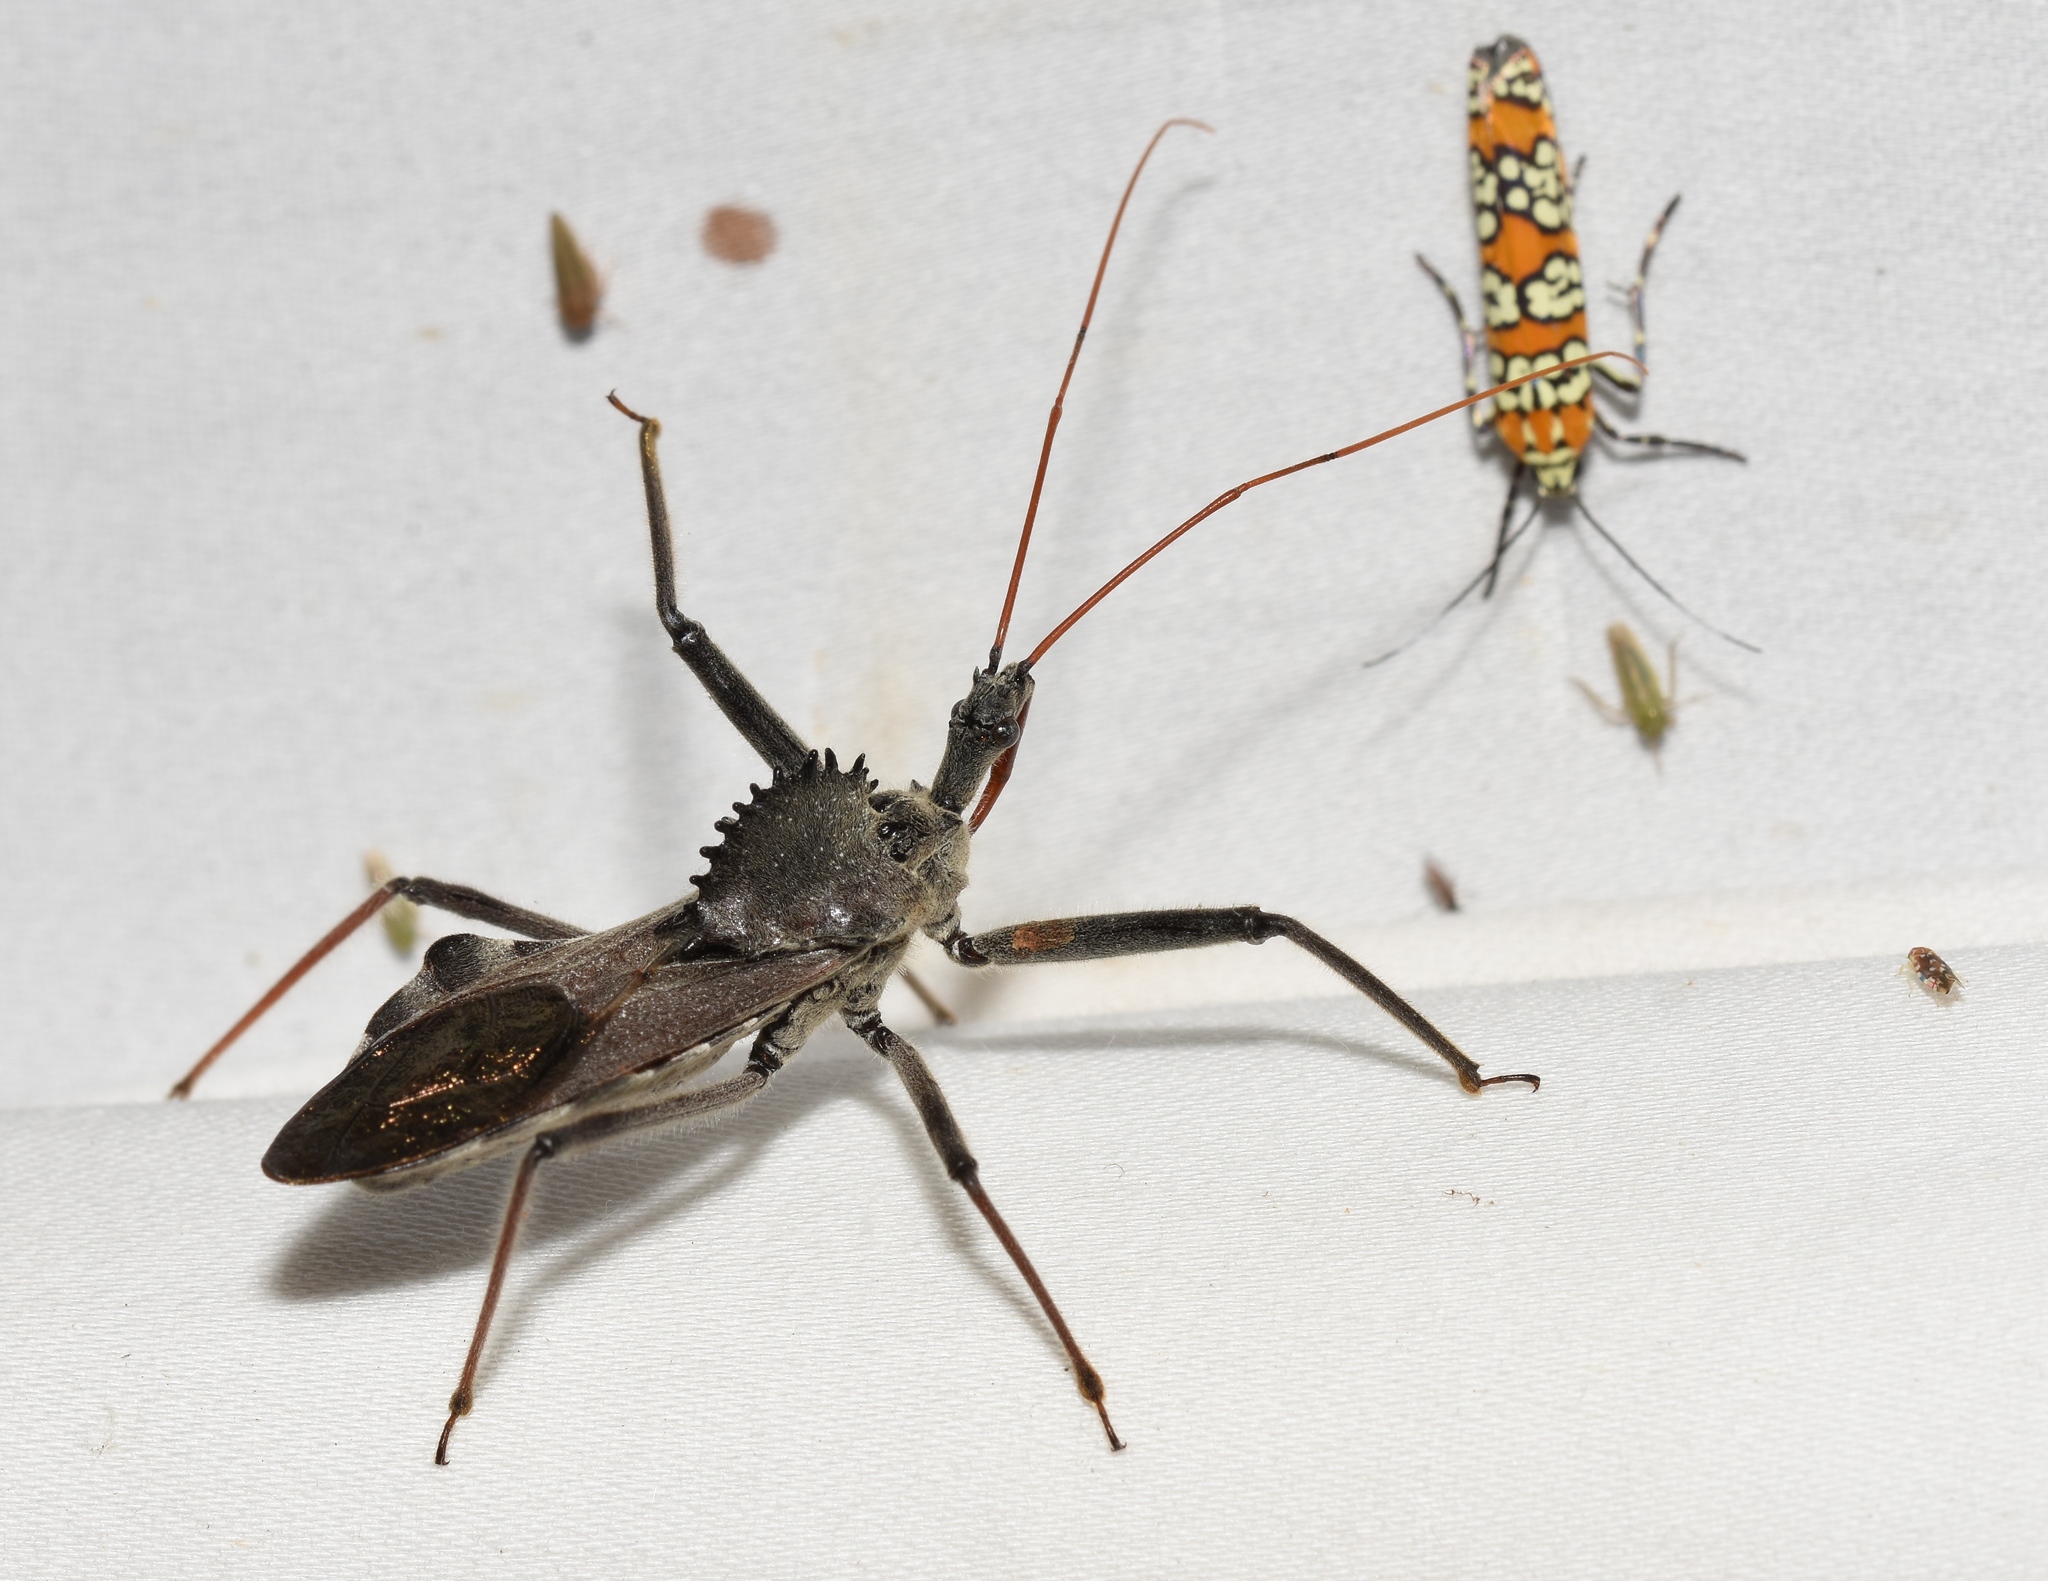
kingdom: Animalia
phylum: Arthropoda
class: Insecta
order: Hemiptera
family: Reduviidae
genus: Arilus
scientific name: Arilus cristatus
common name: North american wheel bug
